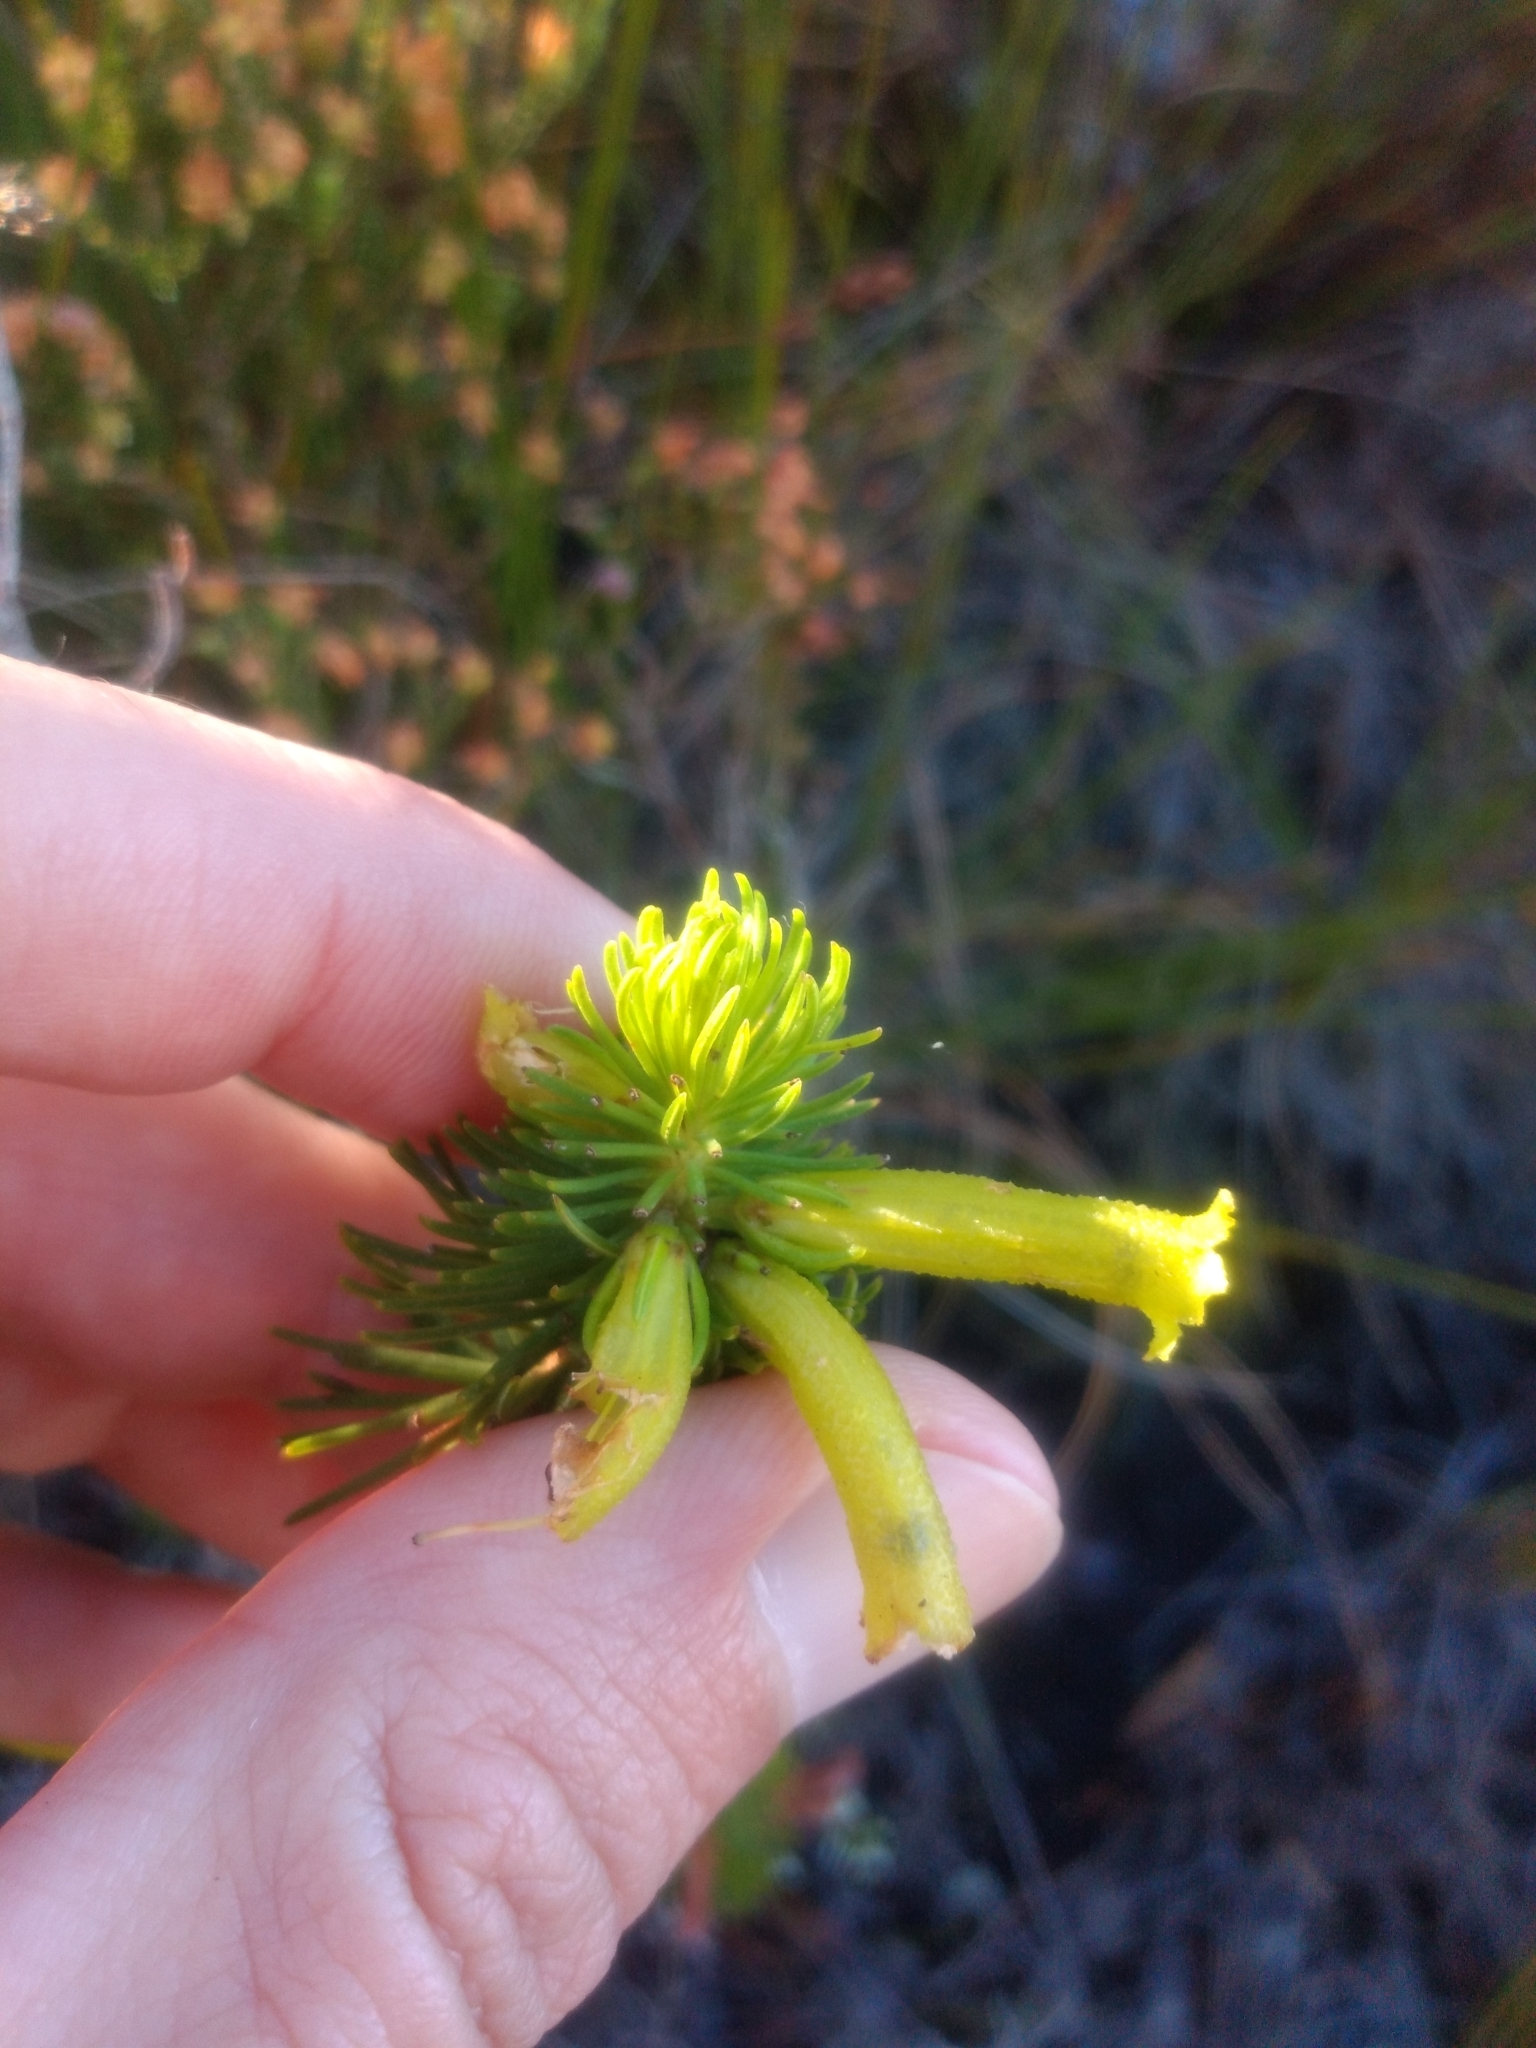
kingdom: Plantae
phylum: Tracheophyta
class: Magnoliopsida
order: Ericales
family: Ericaceae
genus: Erica
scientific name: Erica viscaria
